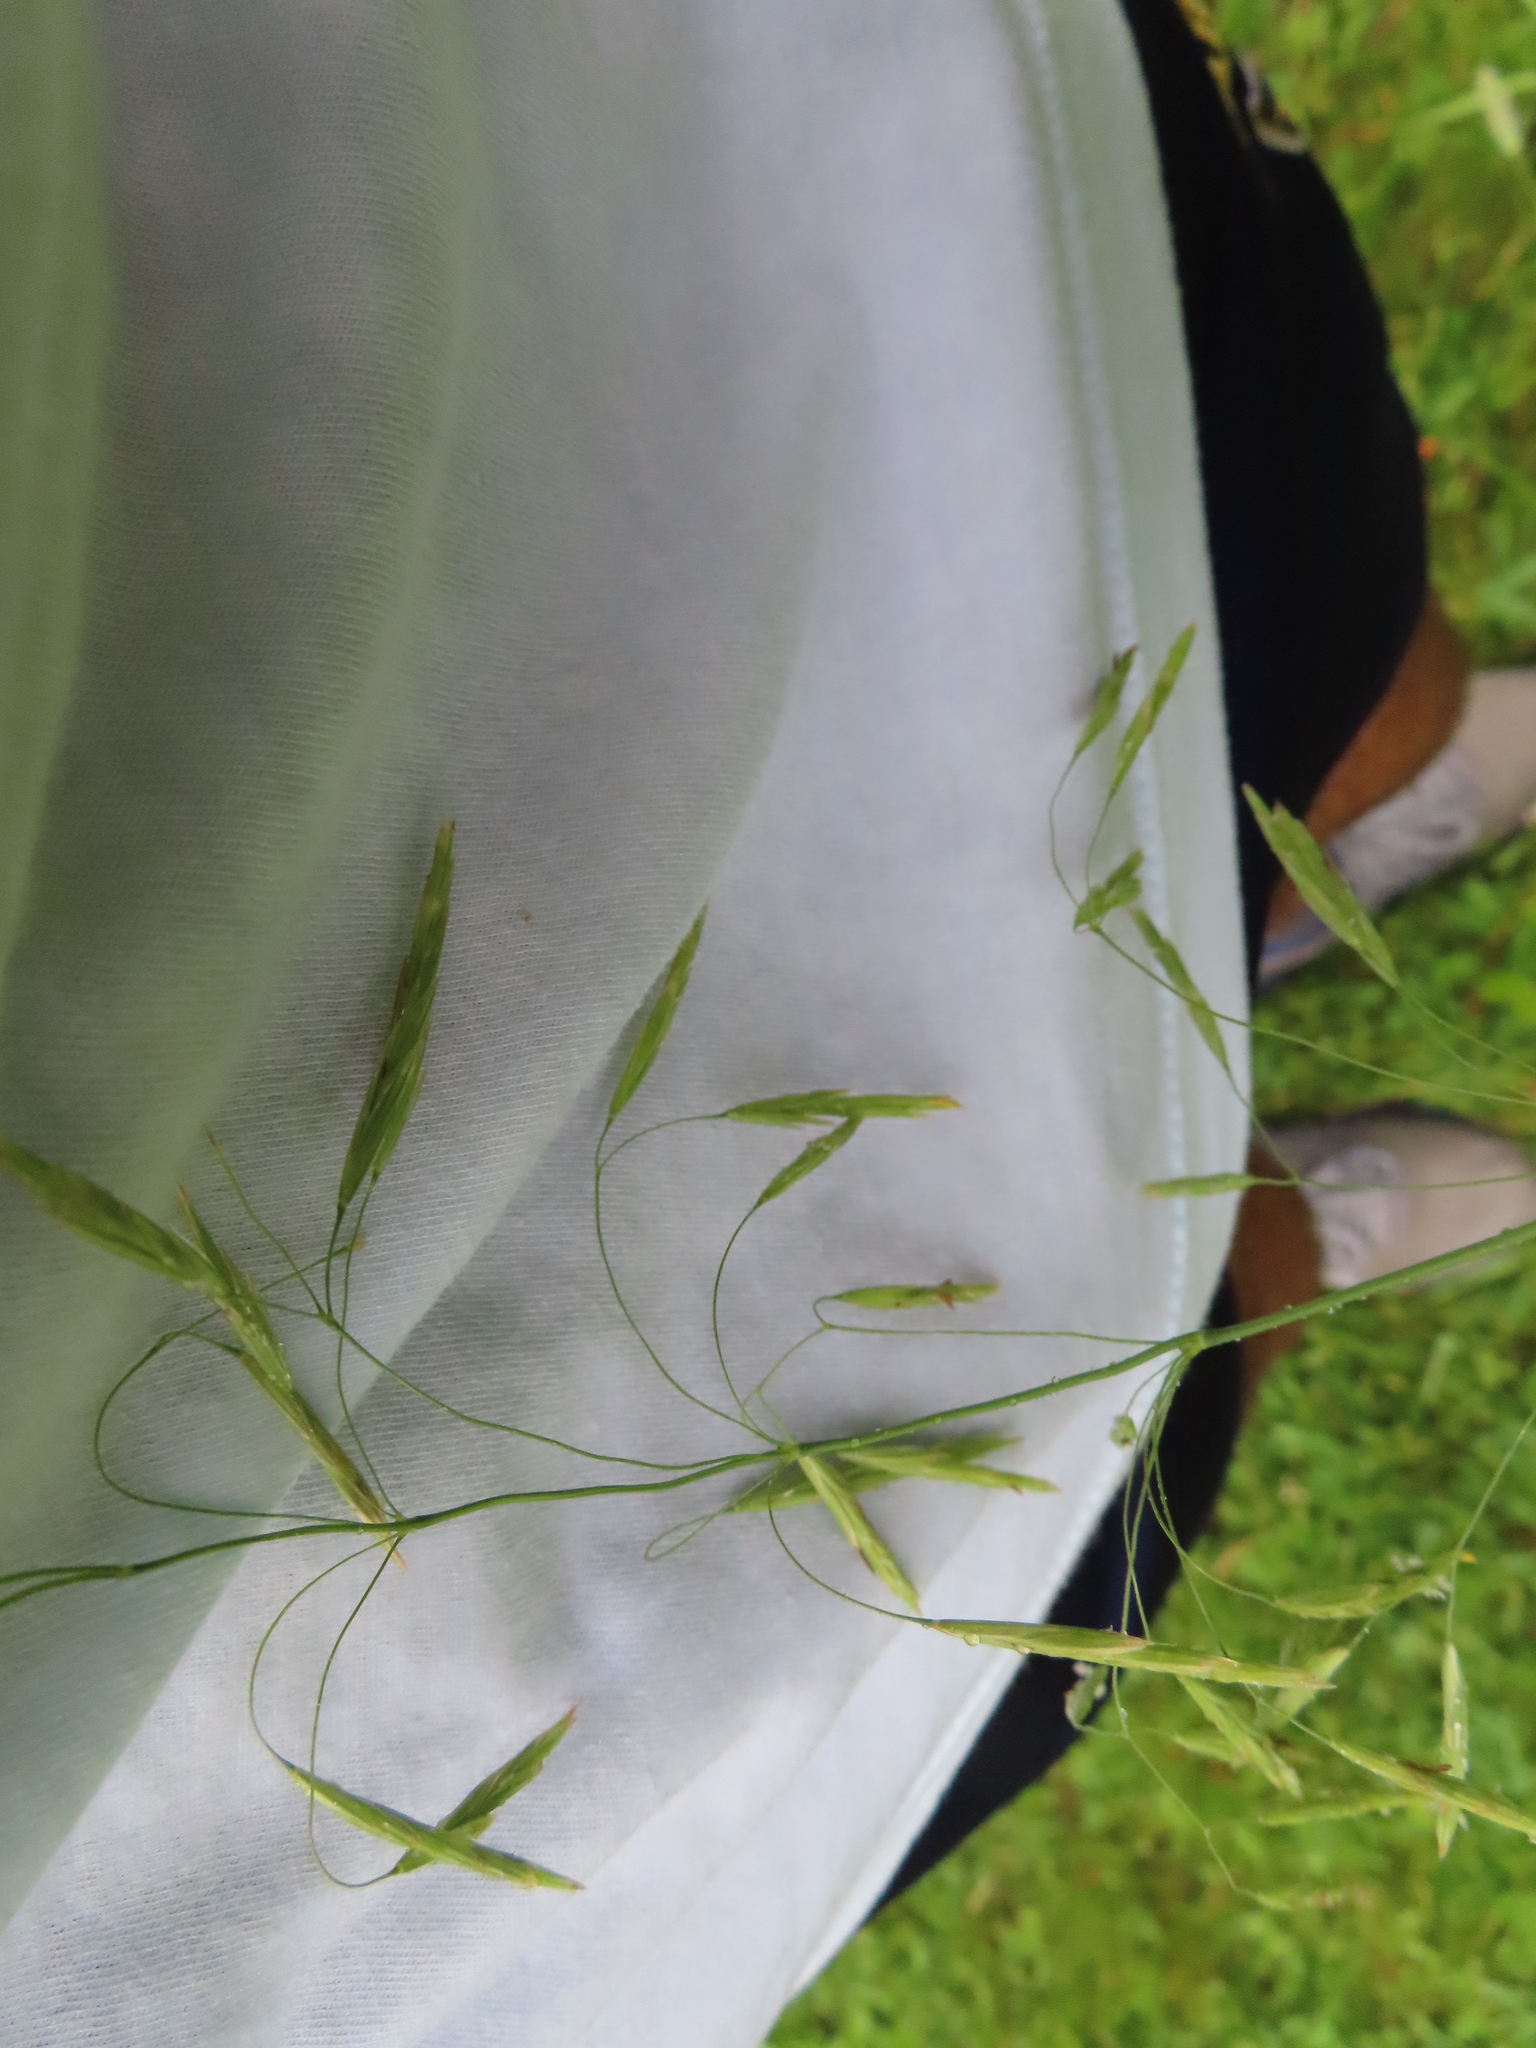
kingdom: Plantae
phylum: Tracheophyta
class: Liliopsida
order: Poales
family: Poaceae
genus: Bromus
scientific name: Bromus inermis
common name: Smooth brome
